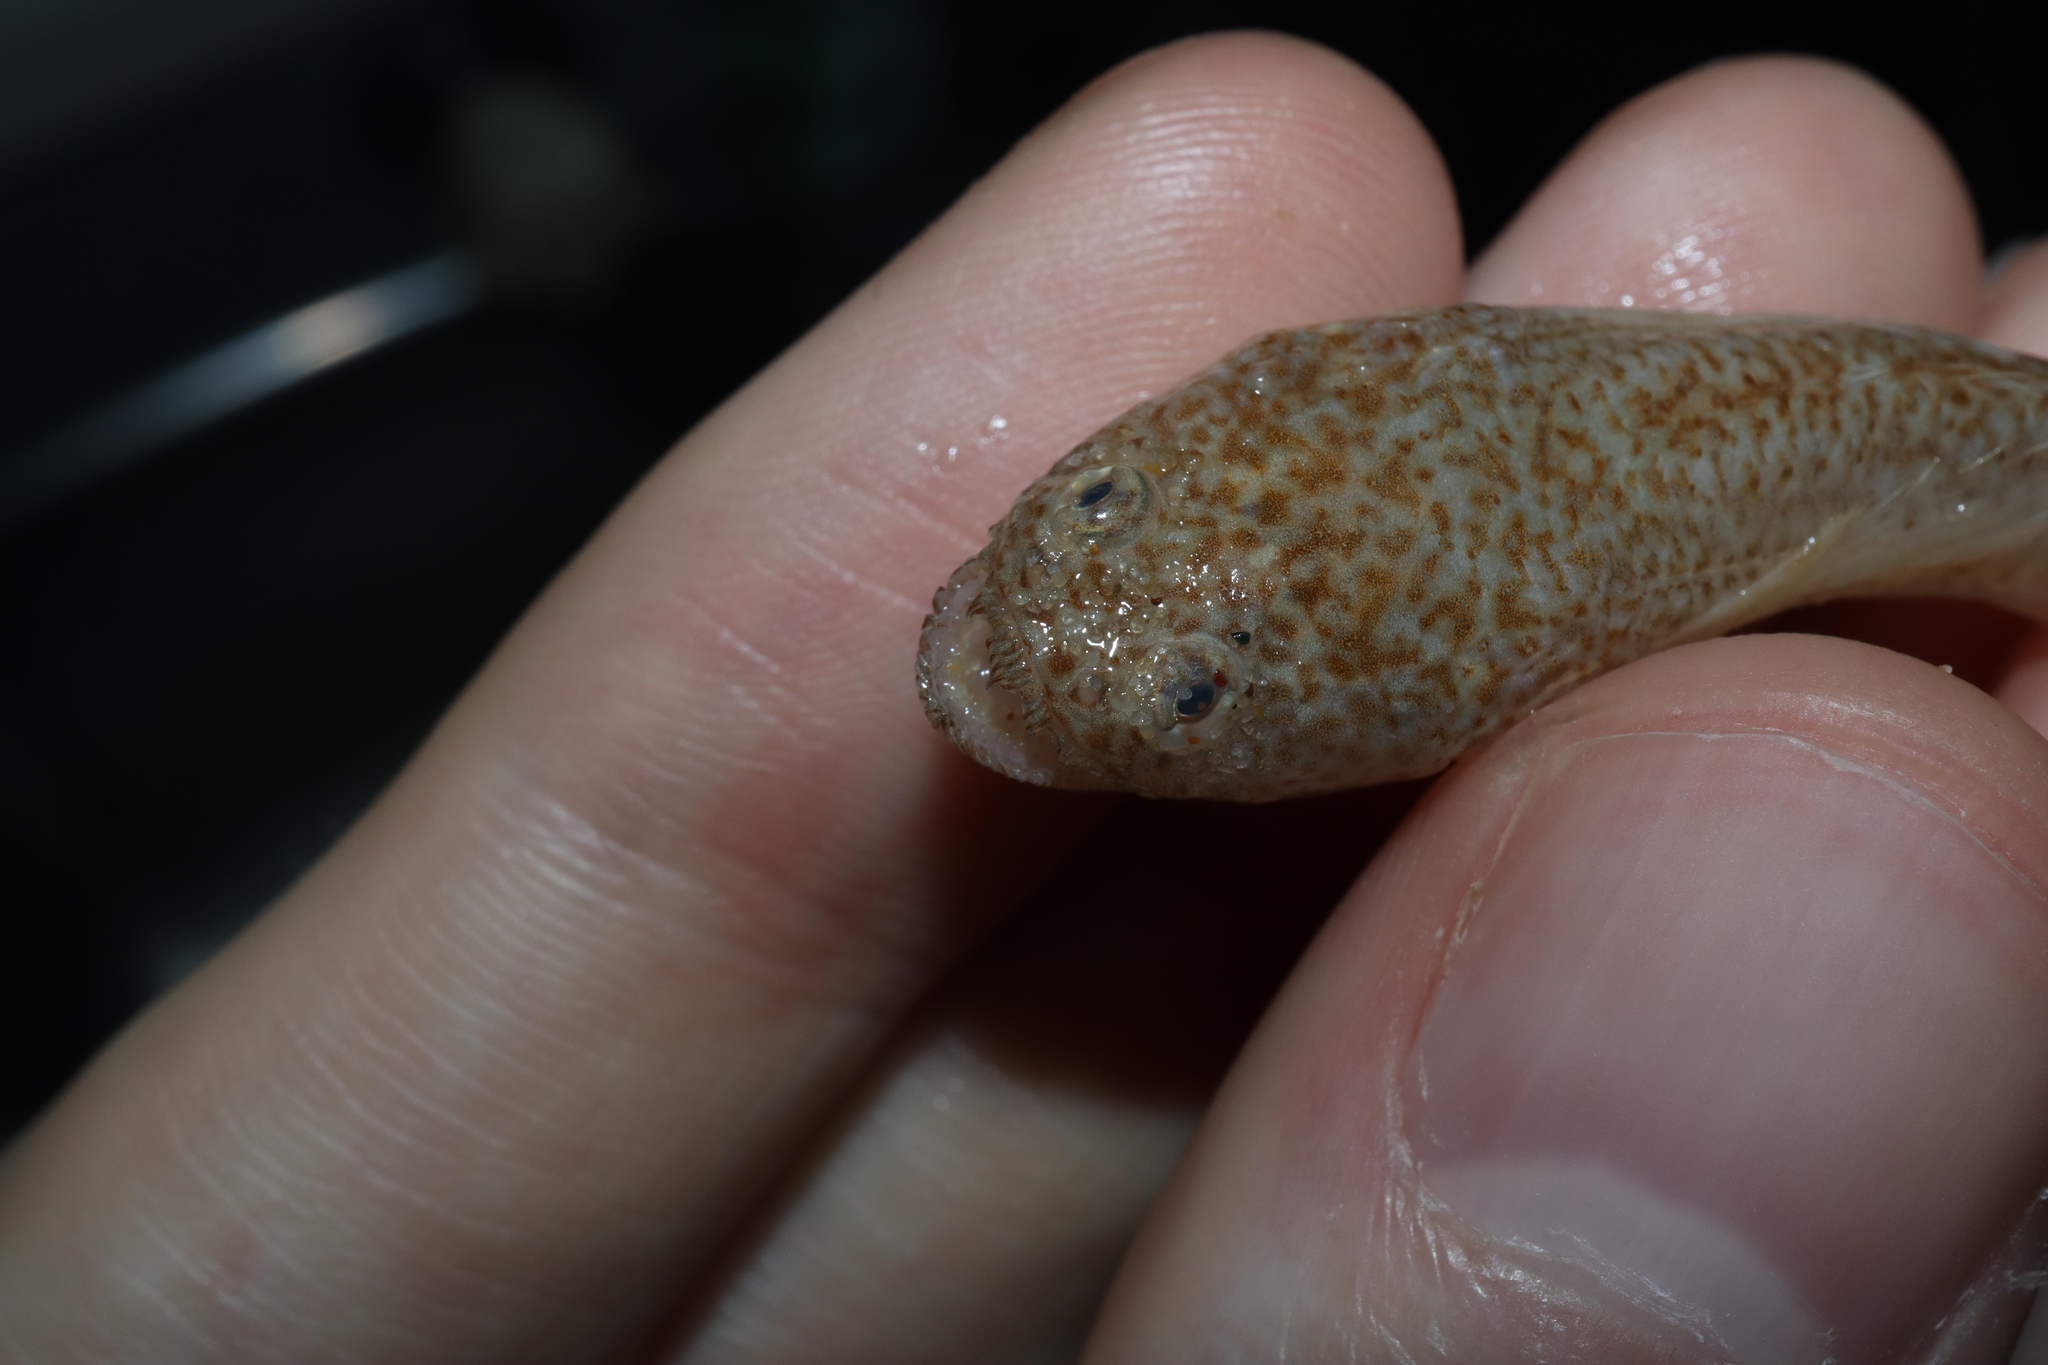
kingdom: Animalia
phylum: Chordata
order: Perciformes
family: Leptoscopidae
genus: Lesueurina
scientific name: Lesueurina platycephala
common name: Common sandfish
